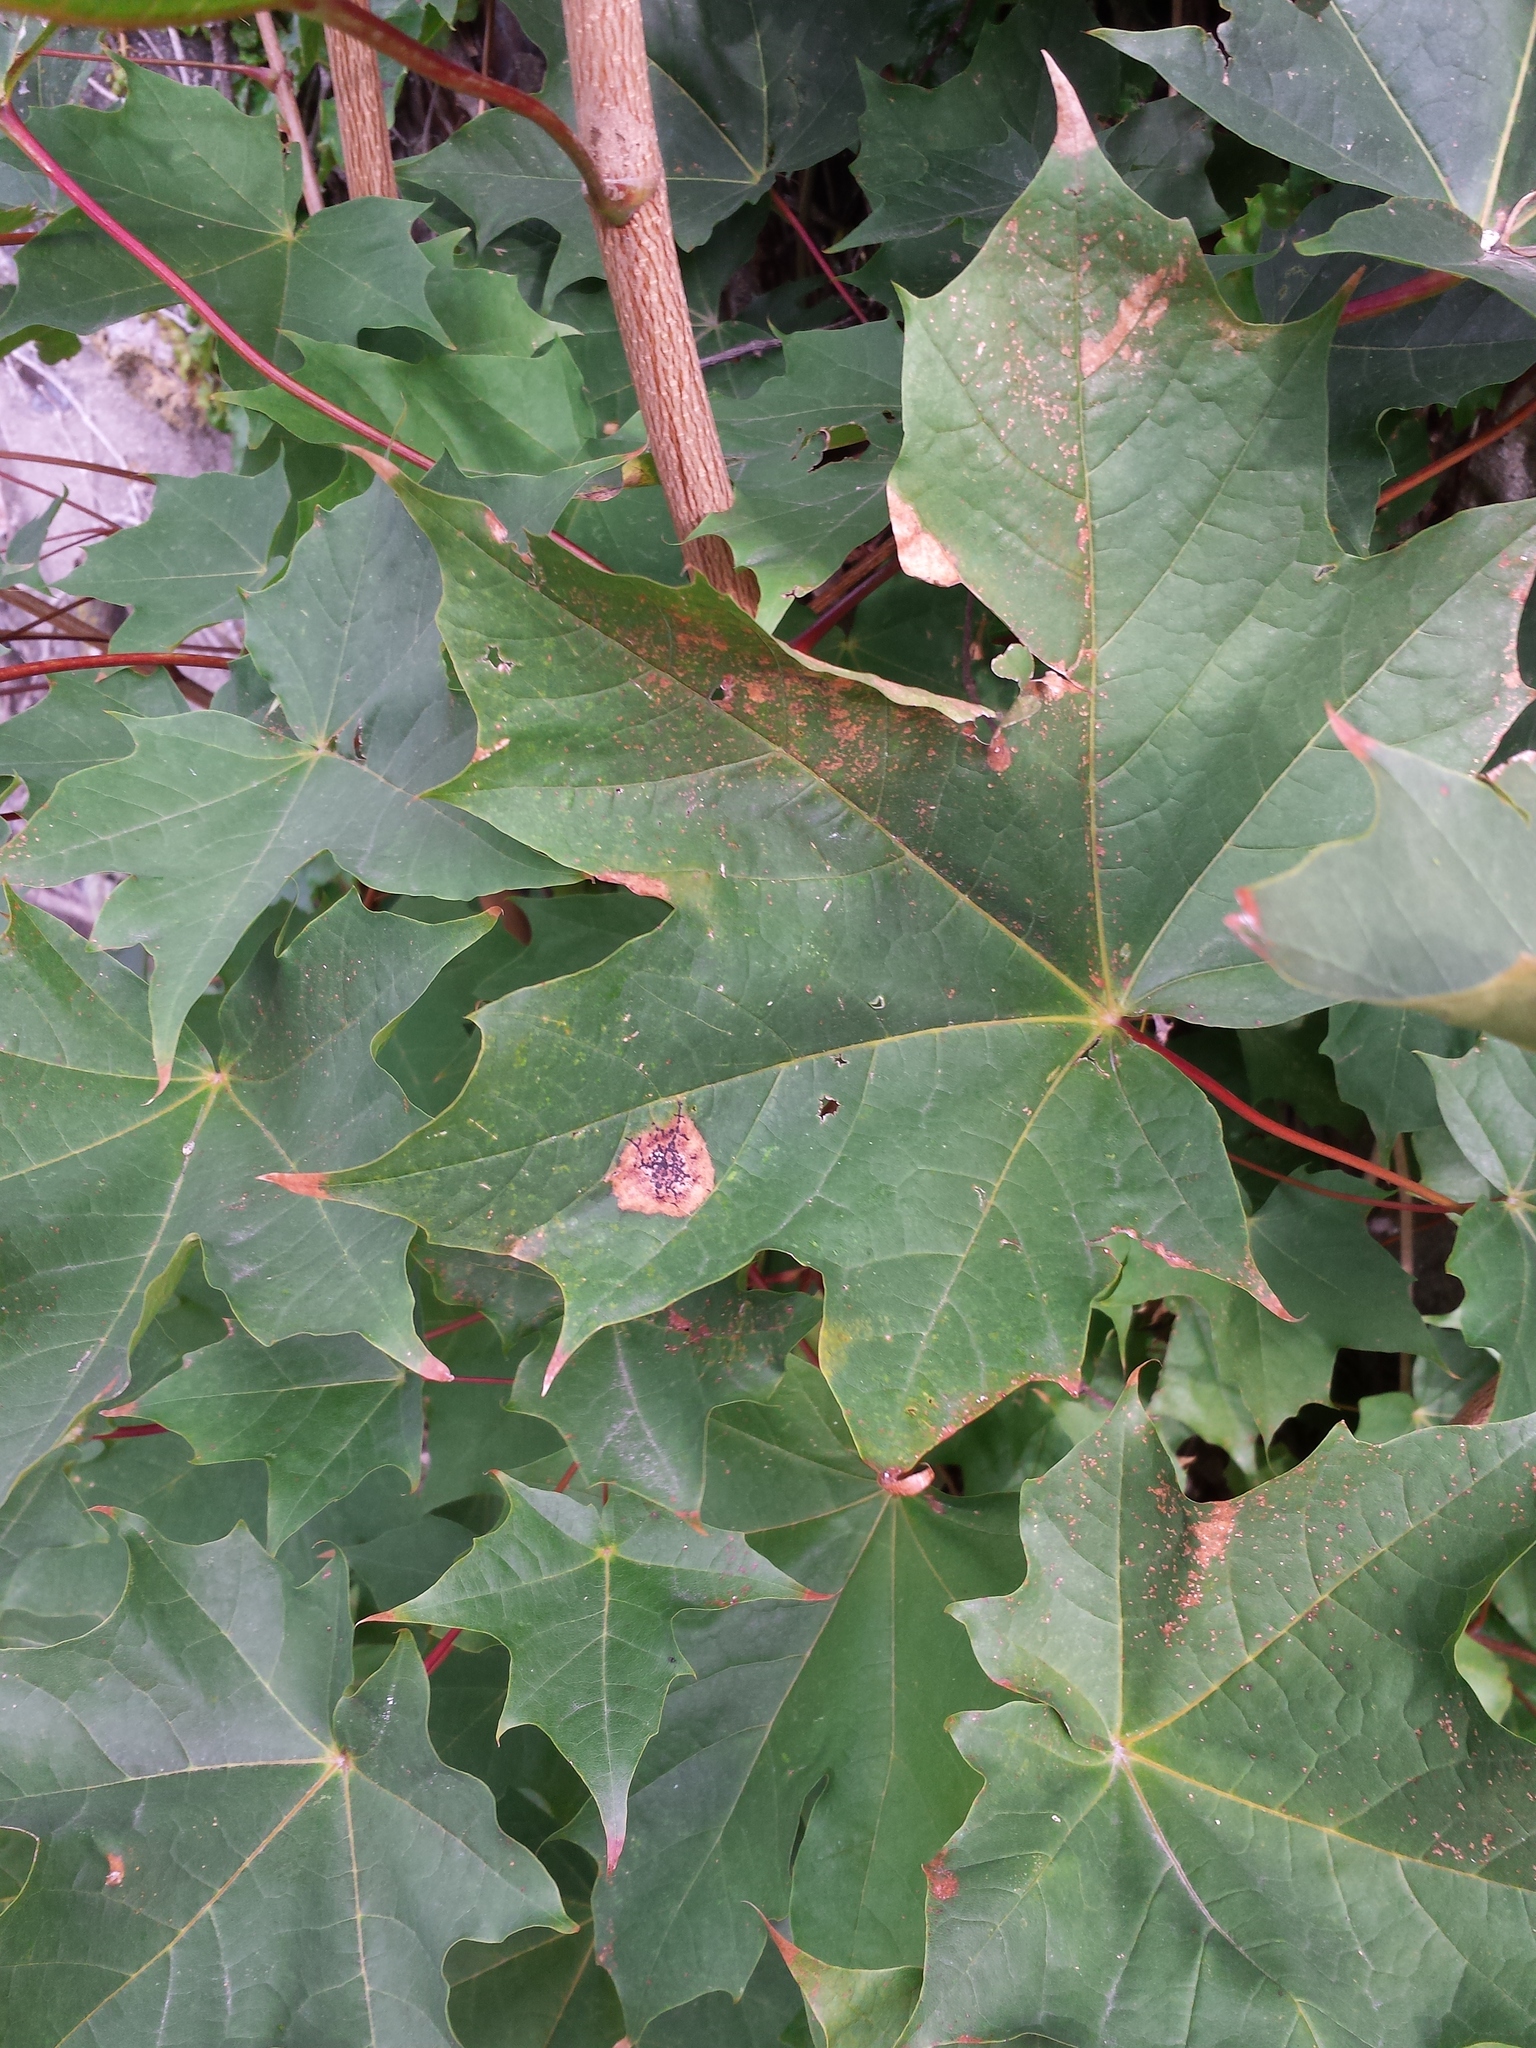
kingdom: Plantae
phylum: Tracheophyta
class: Magnoliopsida
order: Sapindales
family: Sapindaceae
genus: Acer
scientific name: Acer platanoides
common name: Norway maple
